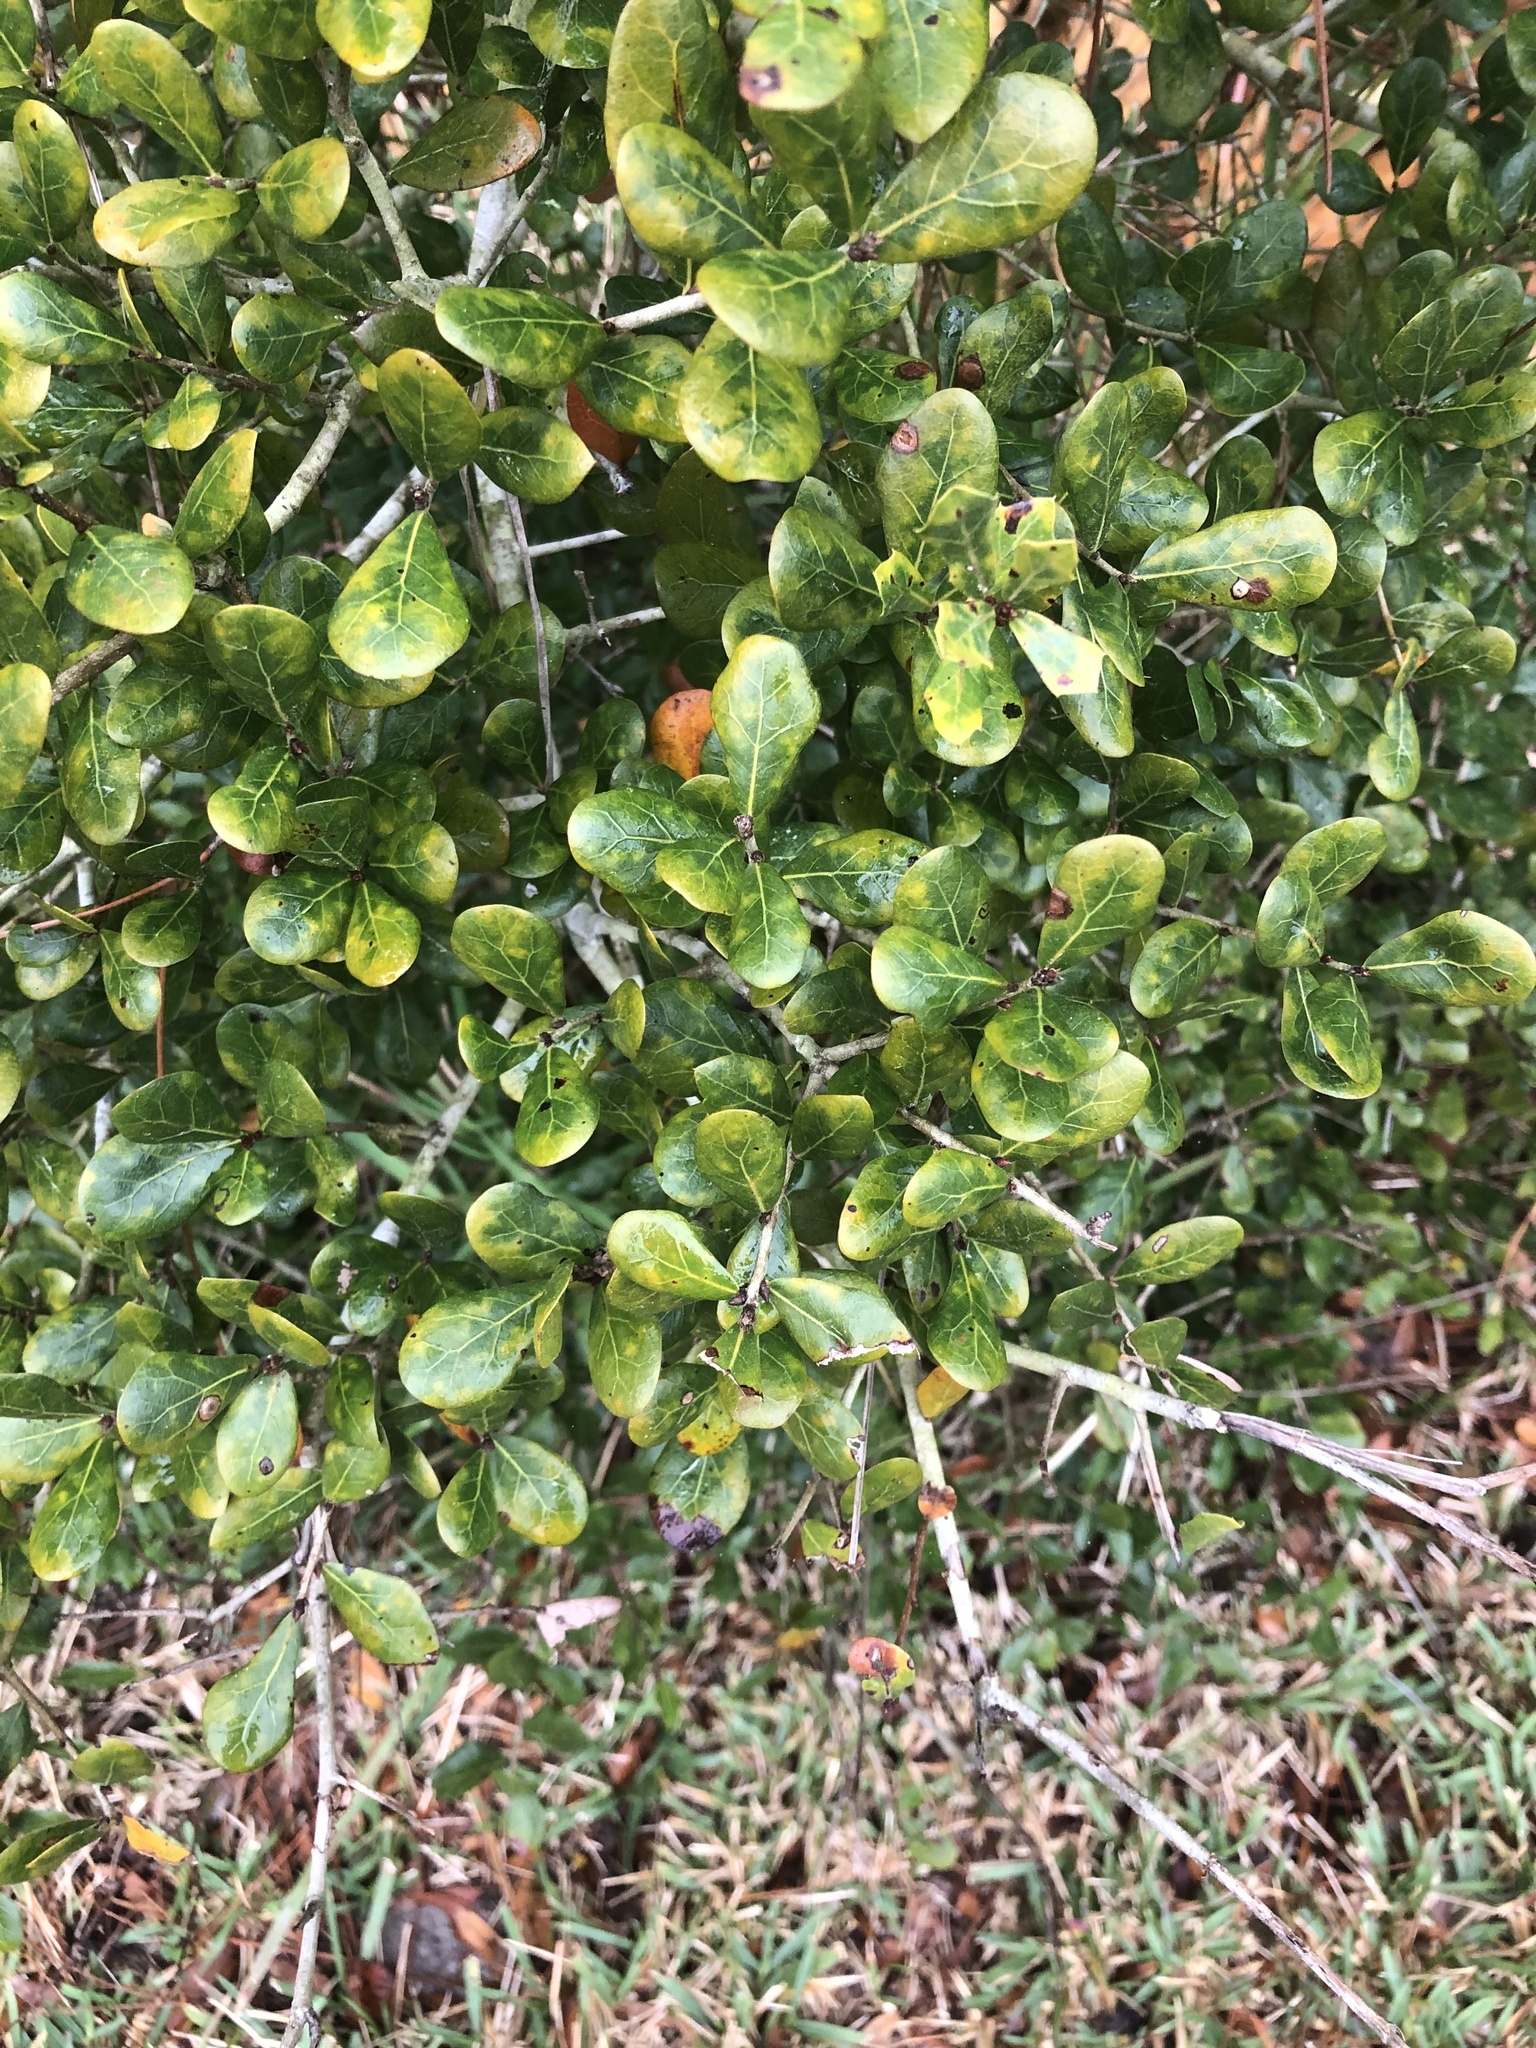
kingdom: Plantae
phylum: Tracheophyta
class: Magnoliopsida
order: Fagales
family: Fagaceae
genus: Quercus
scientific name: Quercus myrtifolia
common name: Myrtle oak
